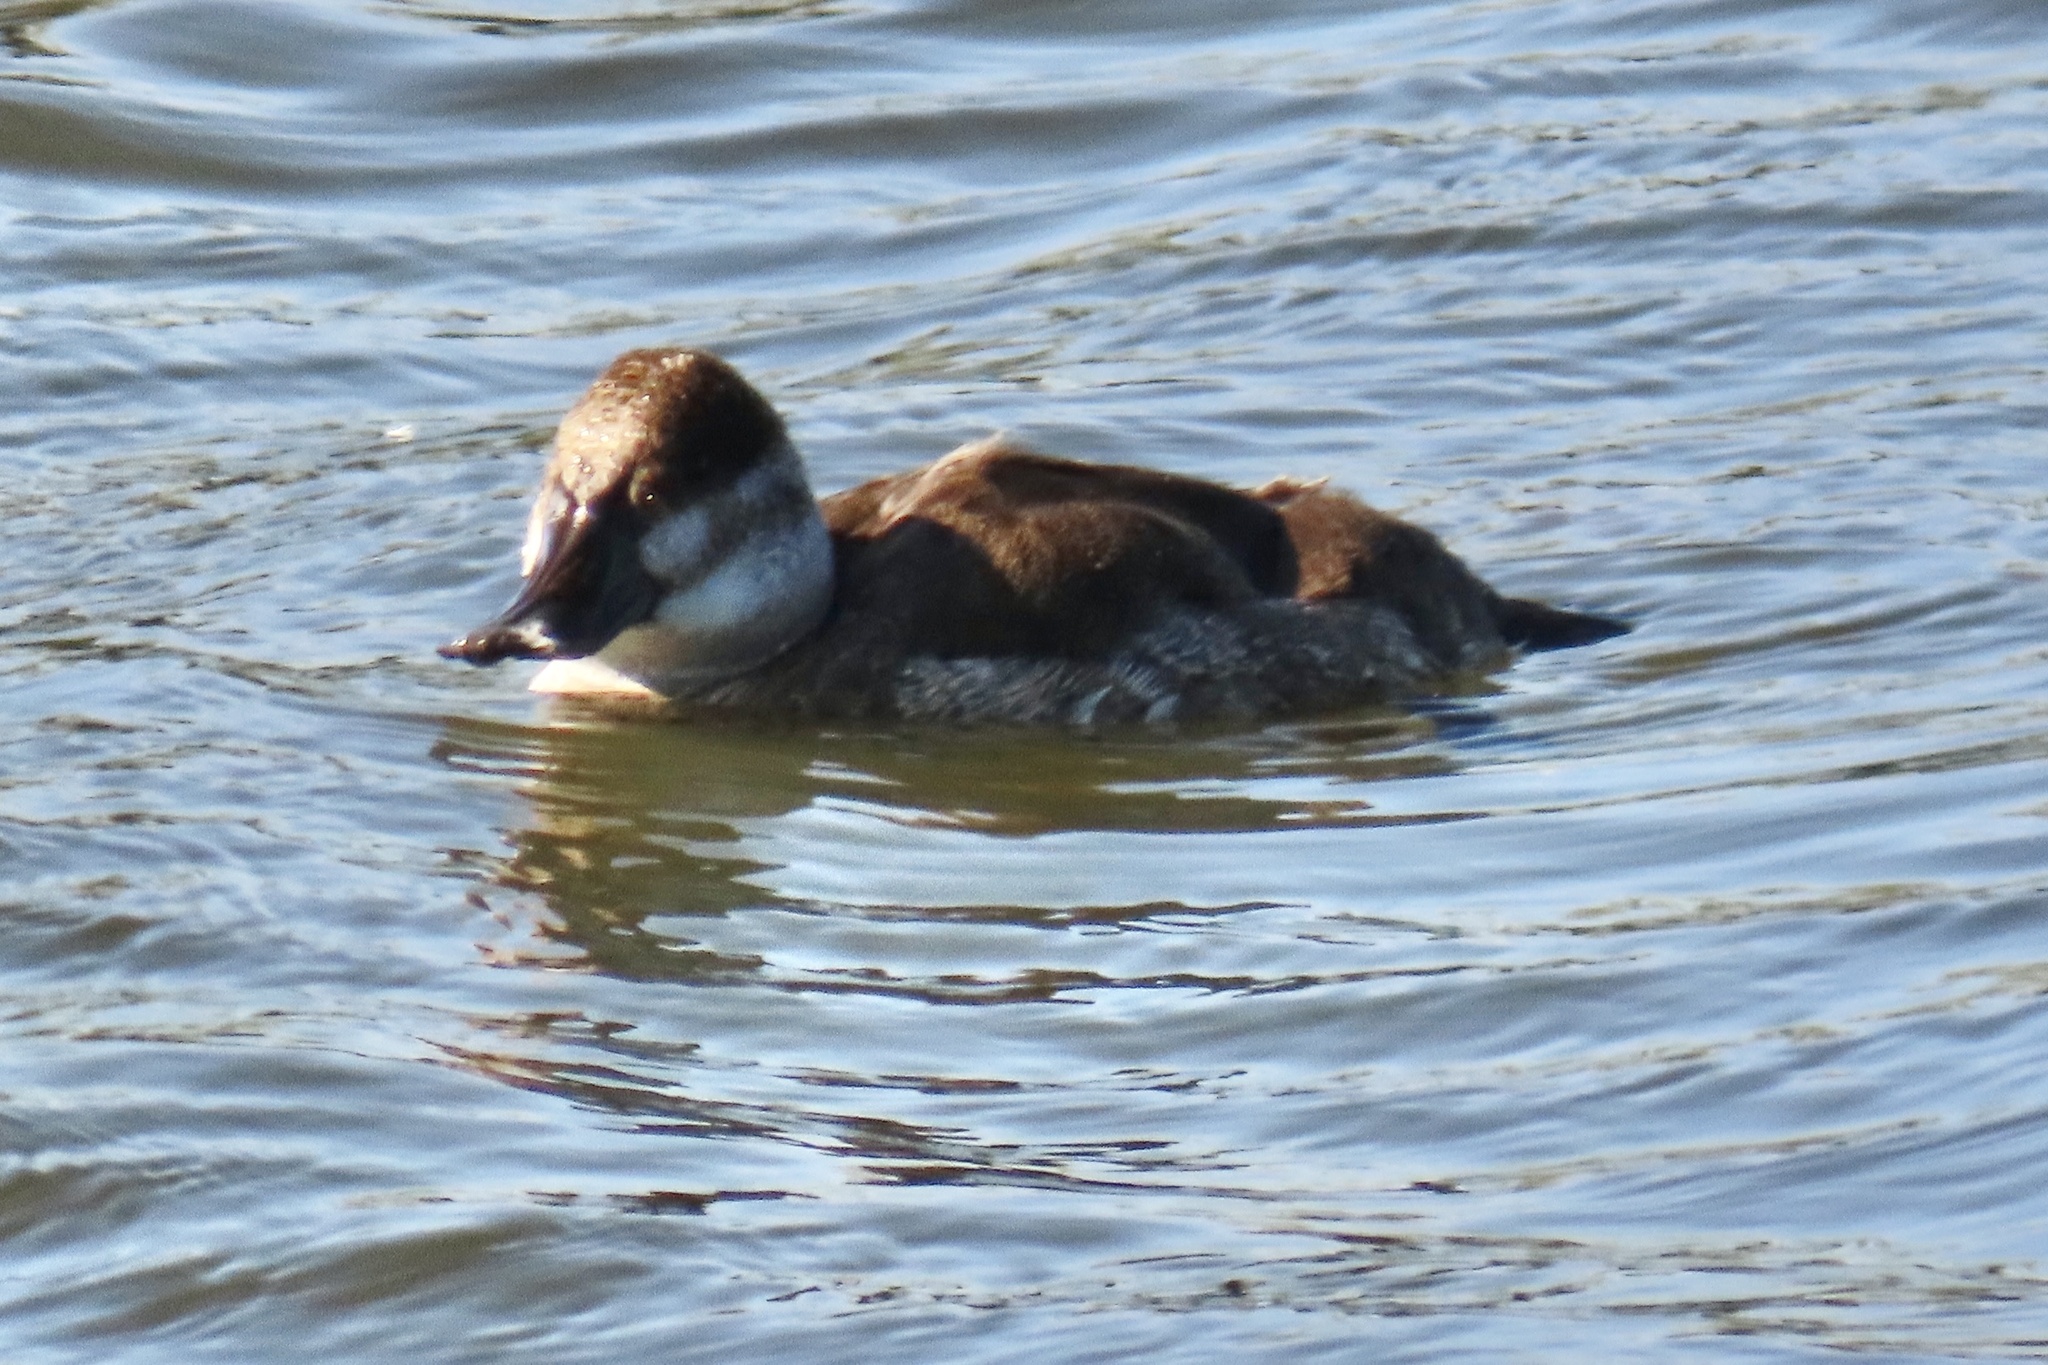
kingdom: Animalia
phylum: Chordata
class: Aves
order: Anseriformes
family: Anatidae
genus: Oxyura
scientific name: Oxyura jamaicensis
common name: Ruddy duck
